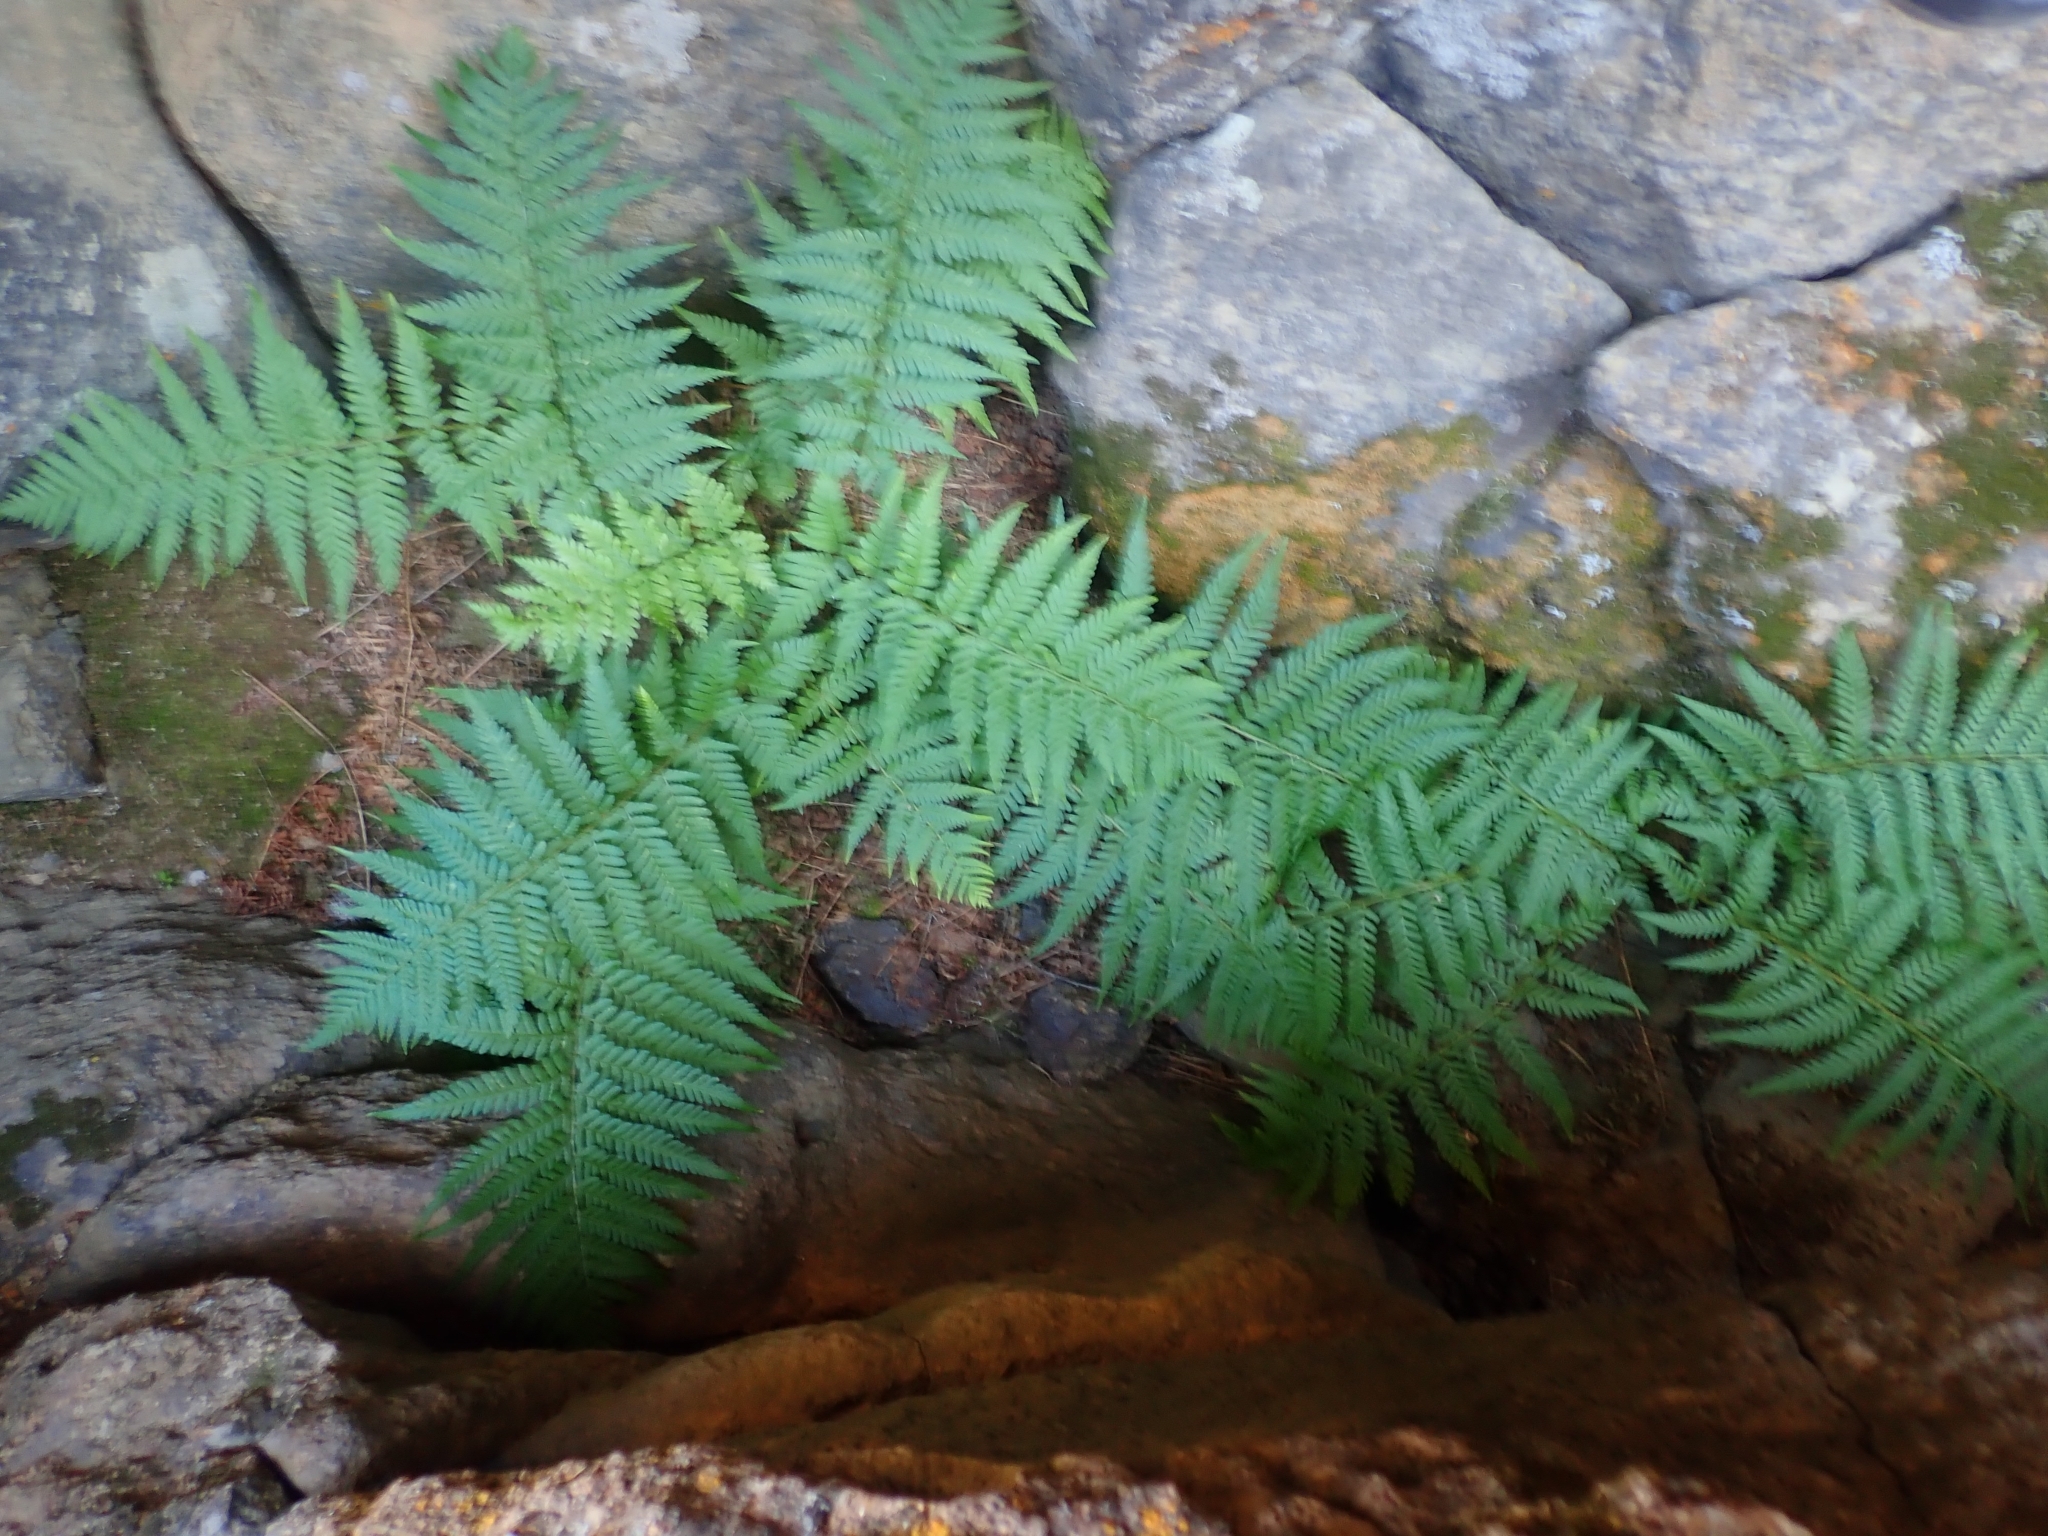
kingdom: Plantae
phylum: Tracheophyta
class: Polypodiopsida
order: Polypodiales
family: Dryopteridaceae
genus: Dryopteris
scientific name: Dryopteris filix-mas
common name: Male fern
